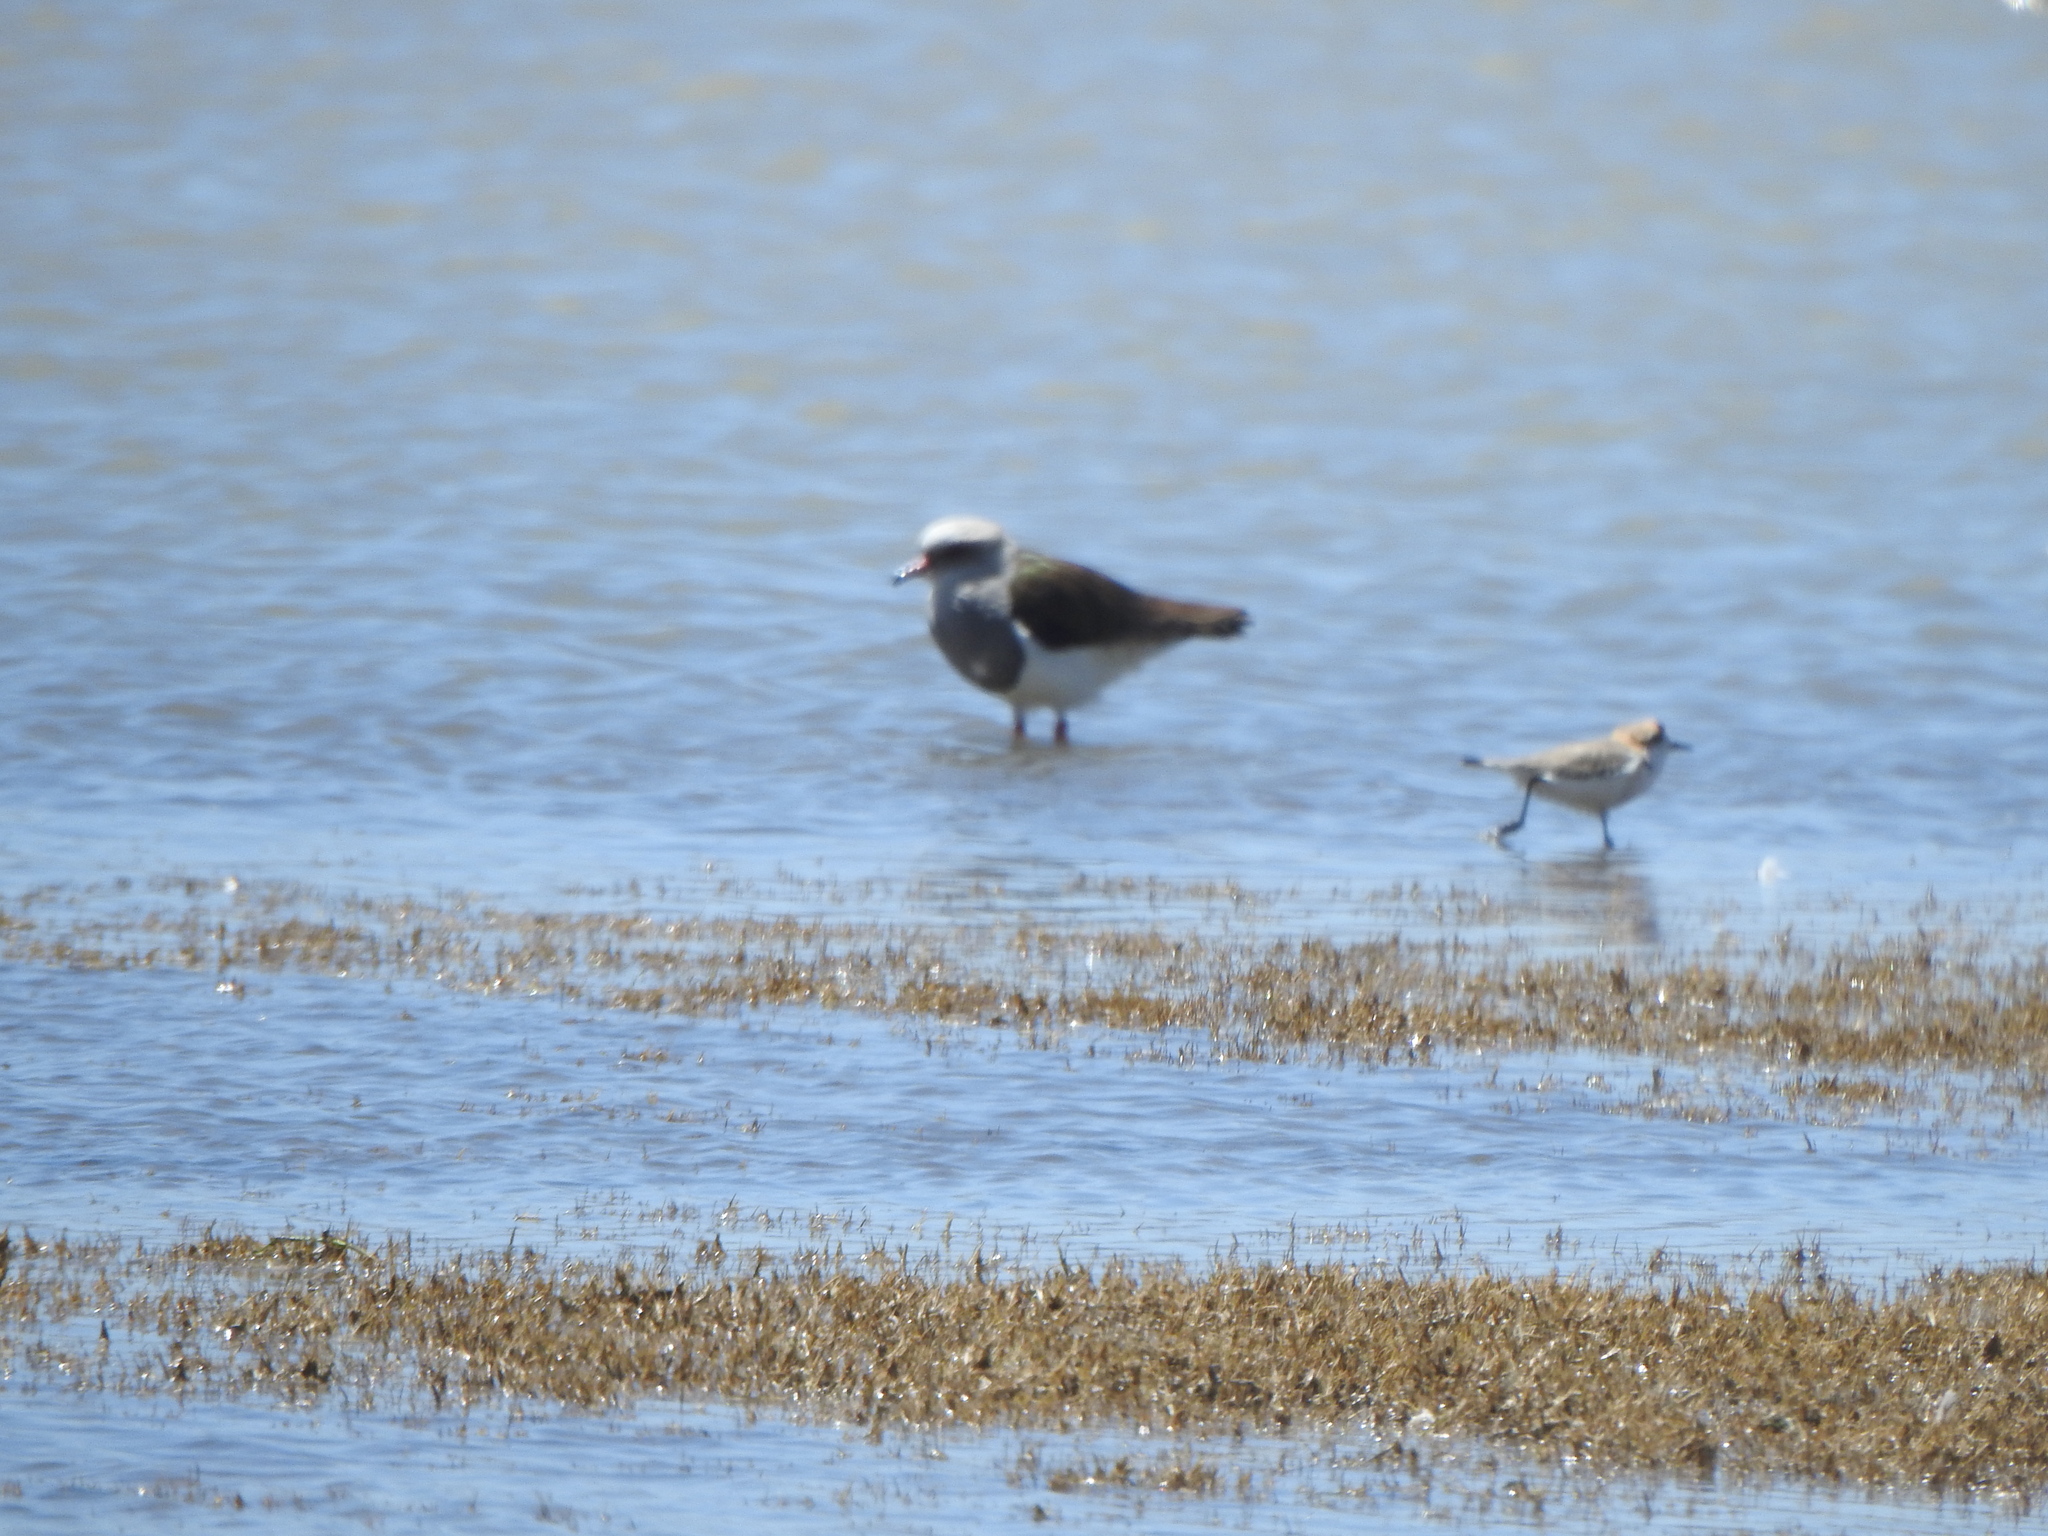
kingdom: Animalia
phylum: Chordata
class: Aves
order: Charadriiformes
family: Charadriidae
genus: Vanellus
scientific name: Vanellus resplendens
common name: Andean lapwing
